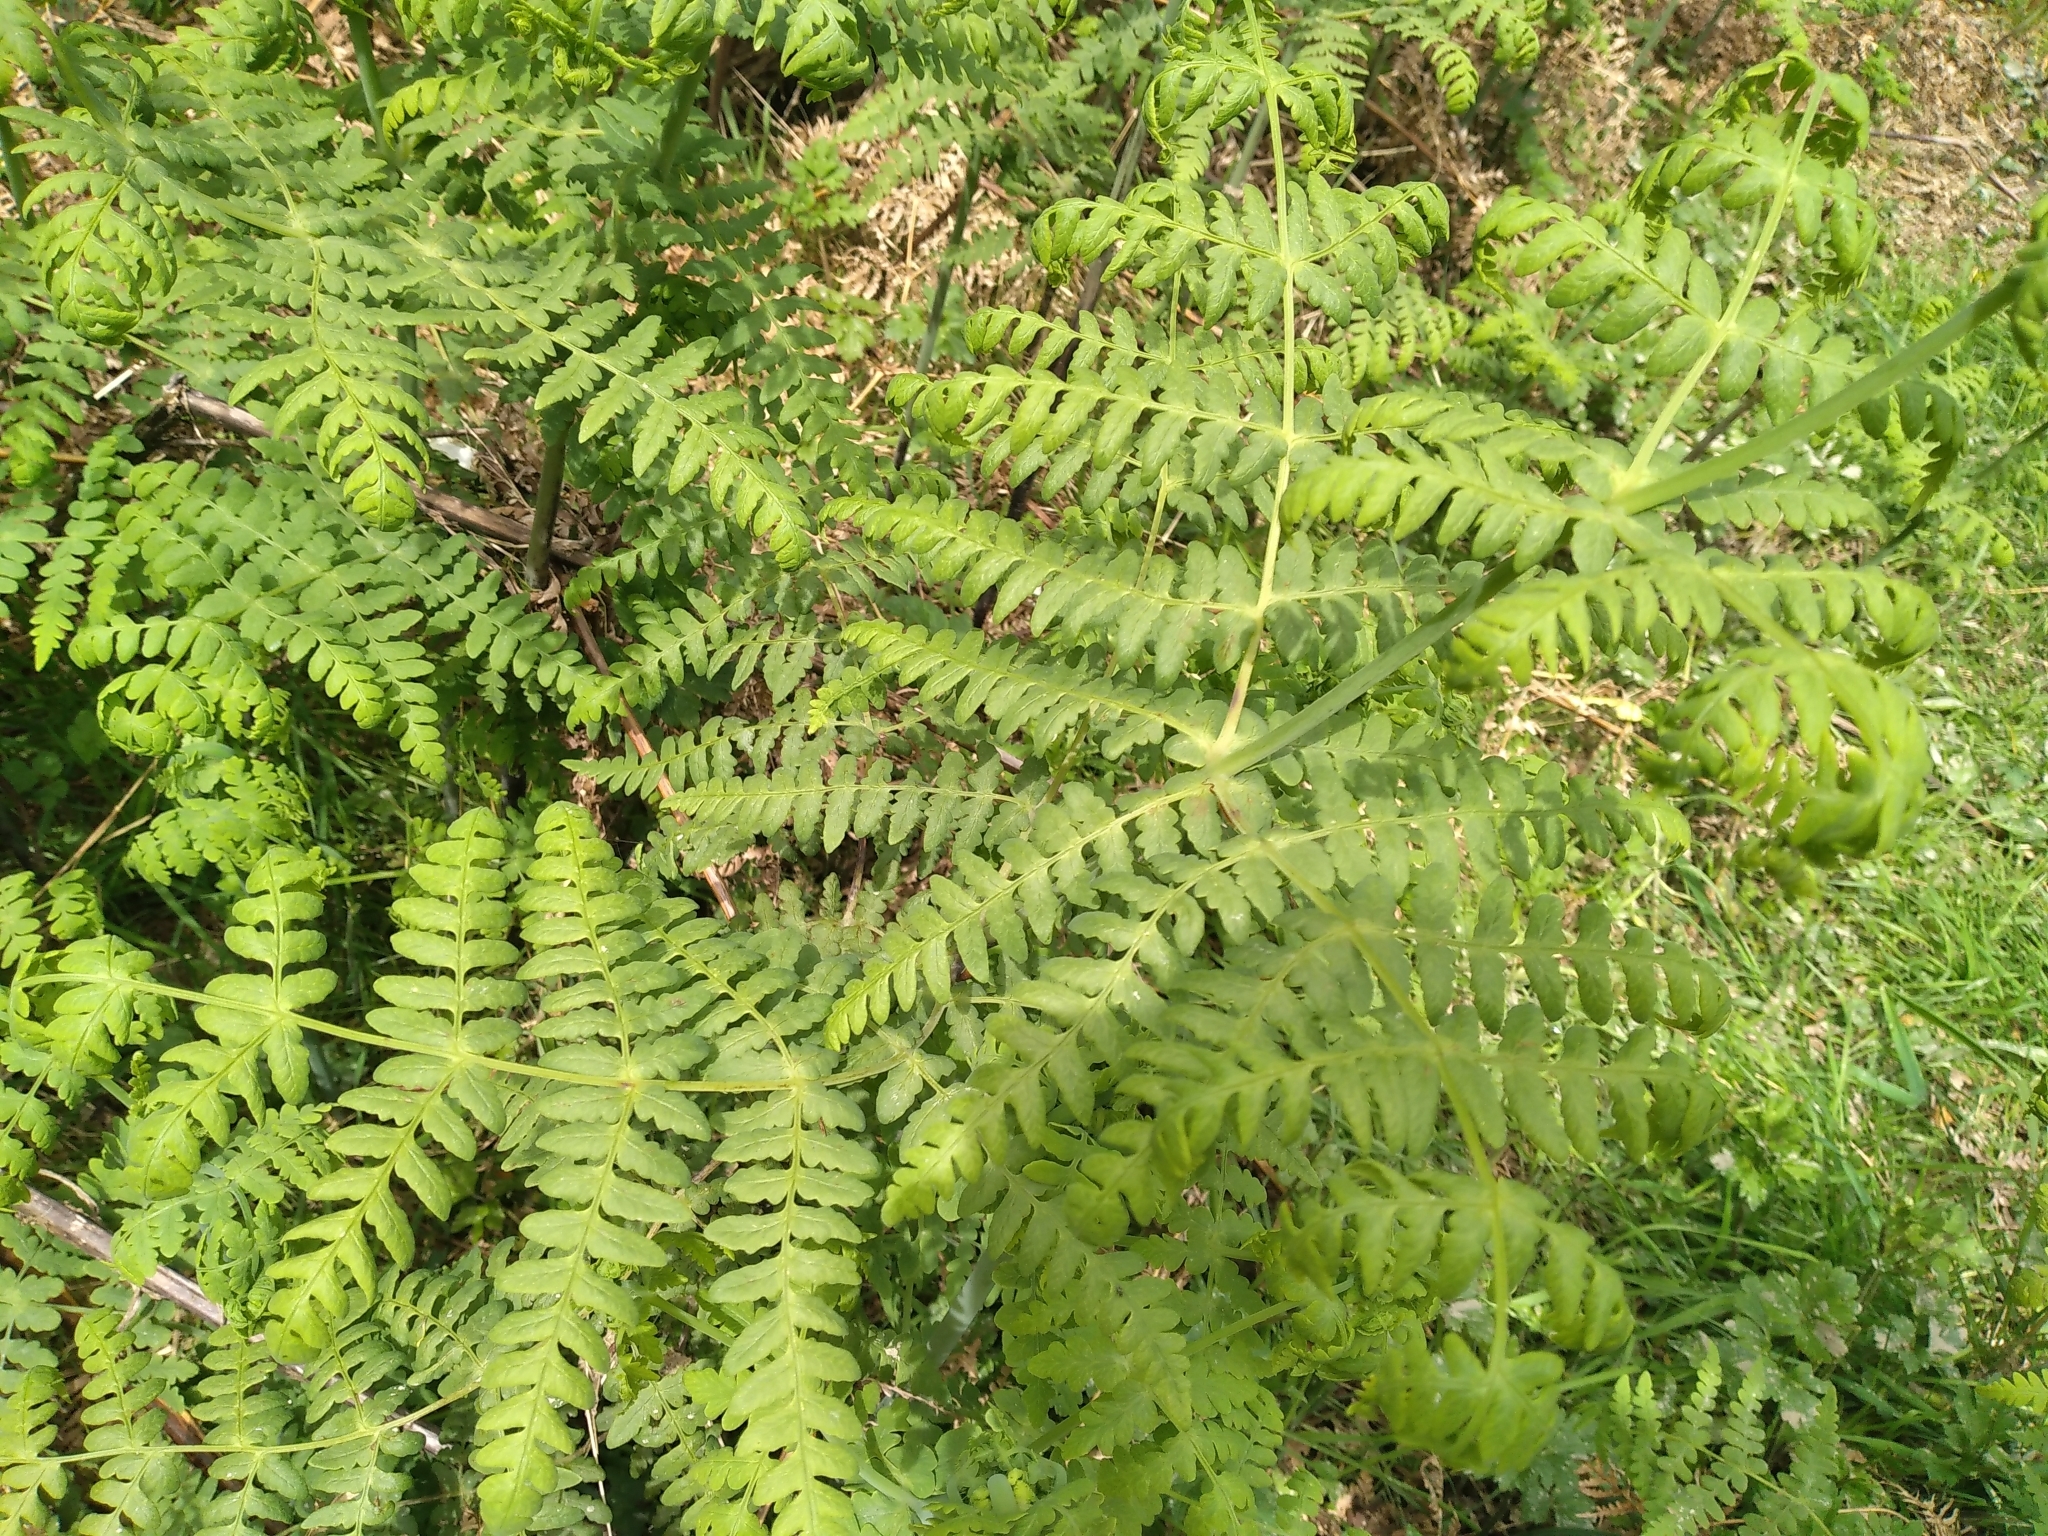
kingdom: Plantae
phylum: Tracheophyta
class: Polypodiopsida
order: Polypodiales
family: Dennstaedtiaceae
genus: Histiopteris
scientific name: Histiopteris incisa
